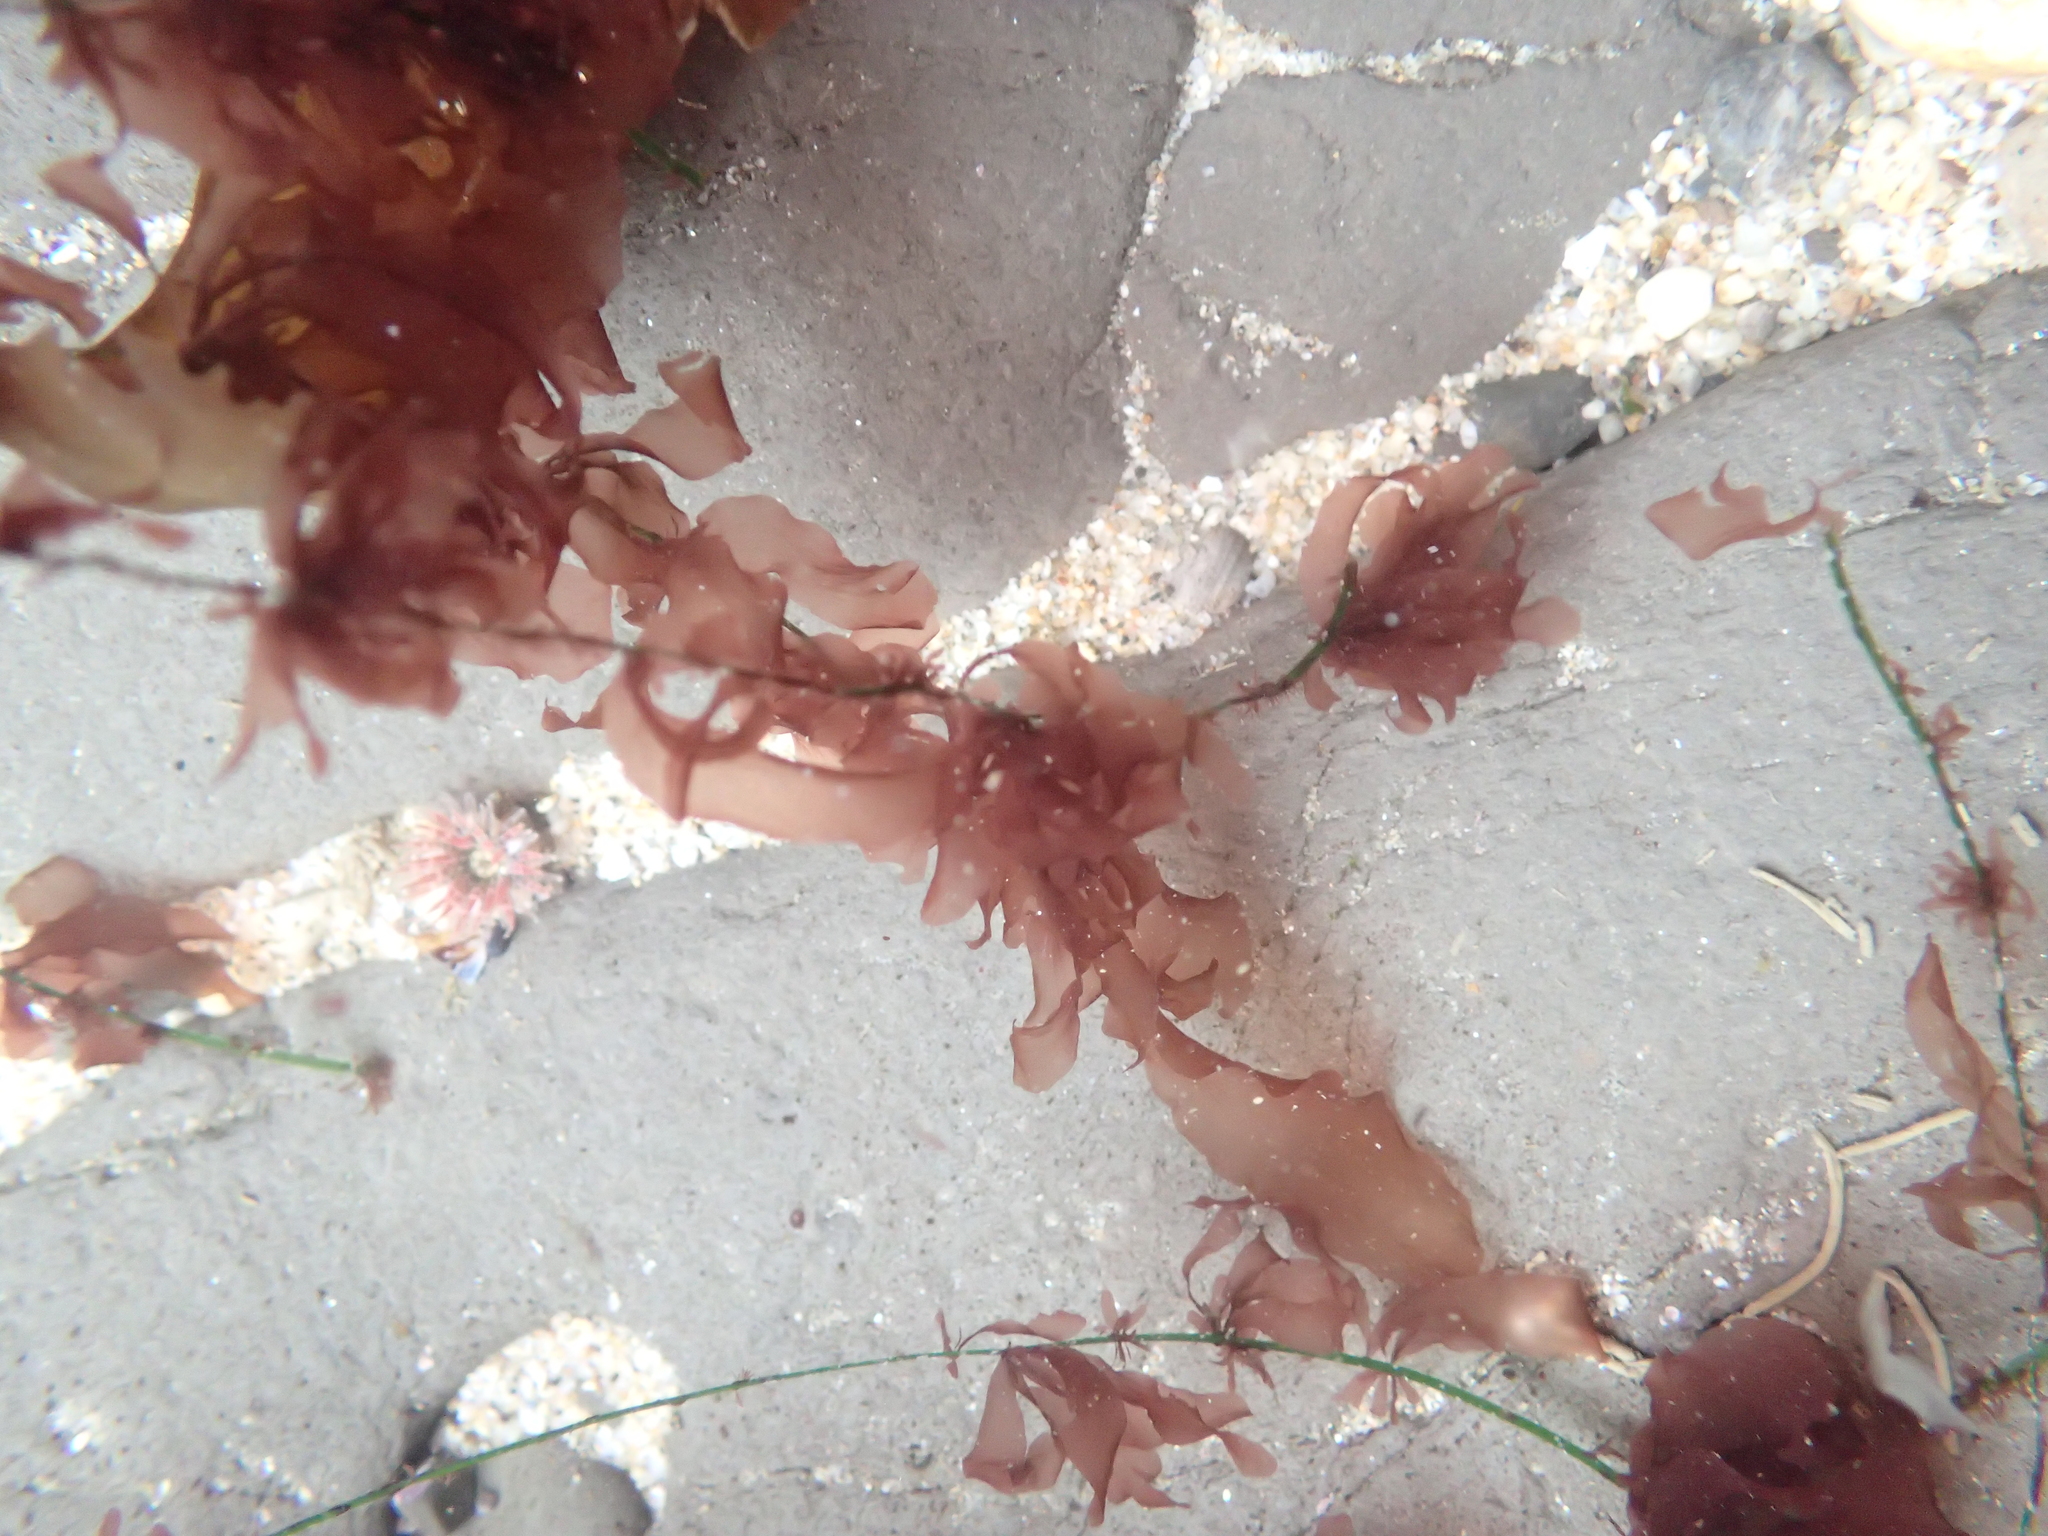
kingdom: Plantae
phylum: Rhodophyta
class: Compsopogonophyceae
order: Erythropeltidales
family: Erythrotrichiaceae
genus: Smithora
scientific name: Smithora naiadum
